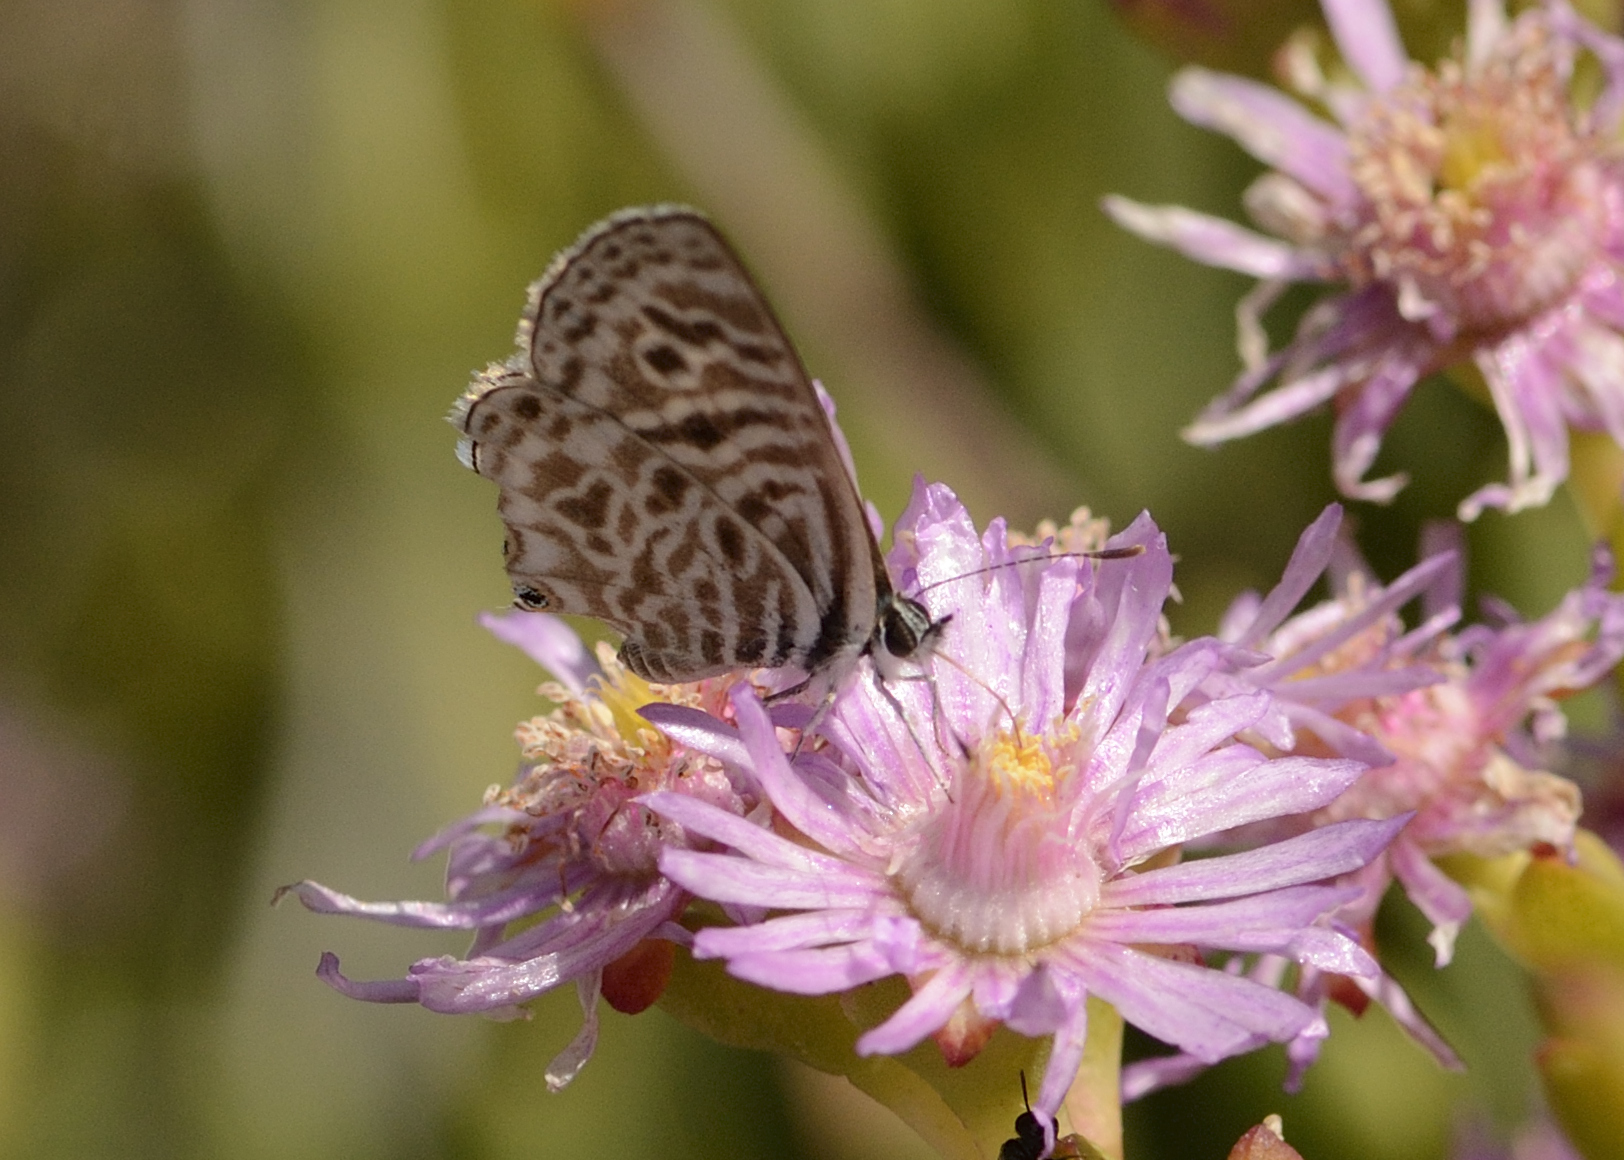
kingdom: Animalia
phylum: Arthropoda
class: Insecta
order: Lepidoptera
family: Lycaenidae
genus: Leptotes
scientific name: Leptotes
